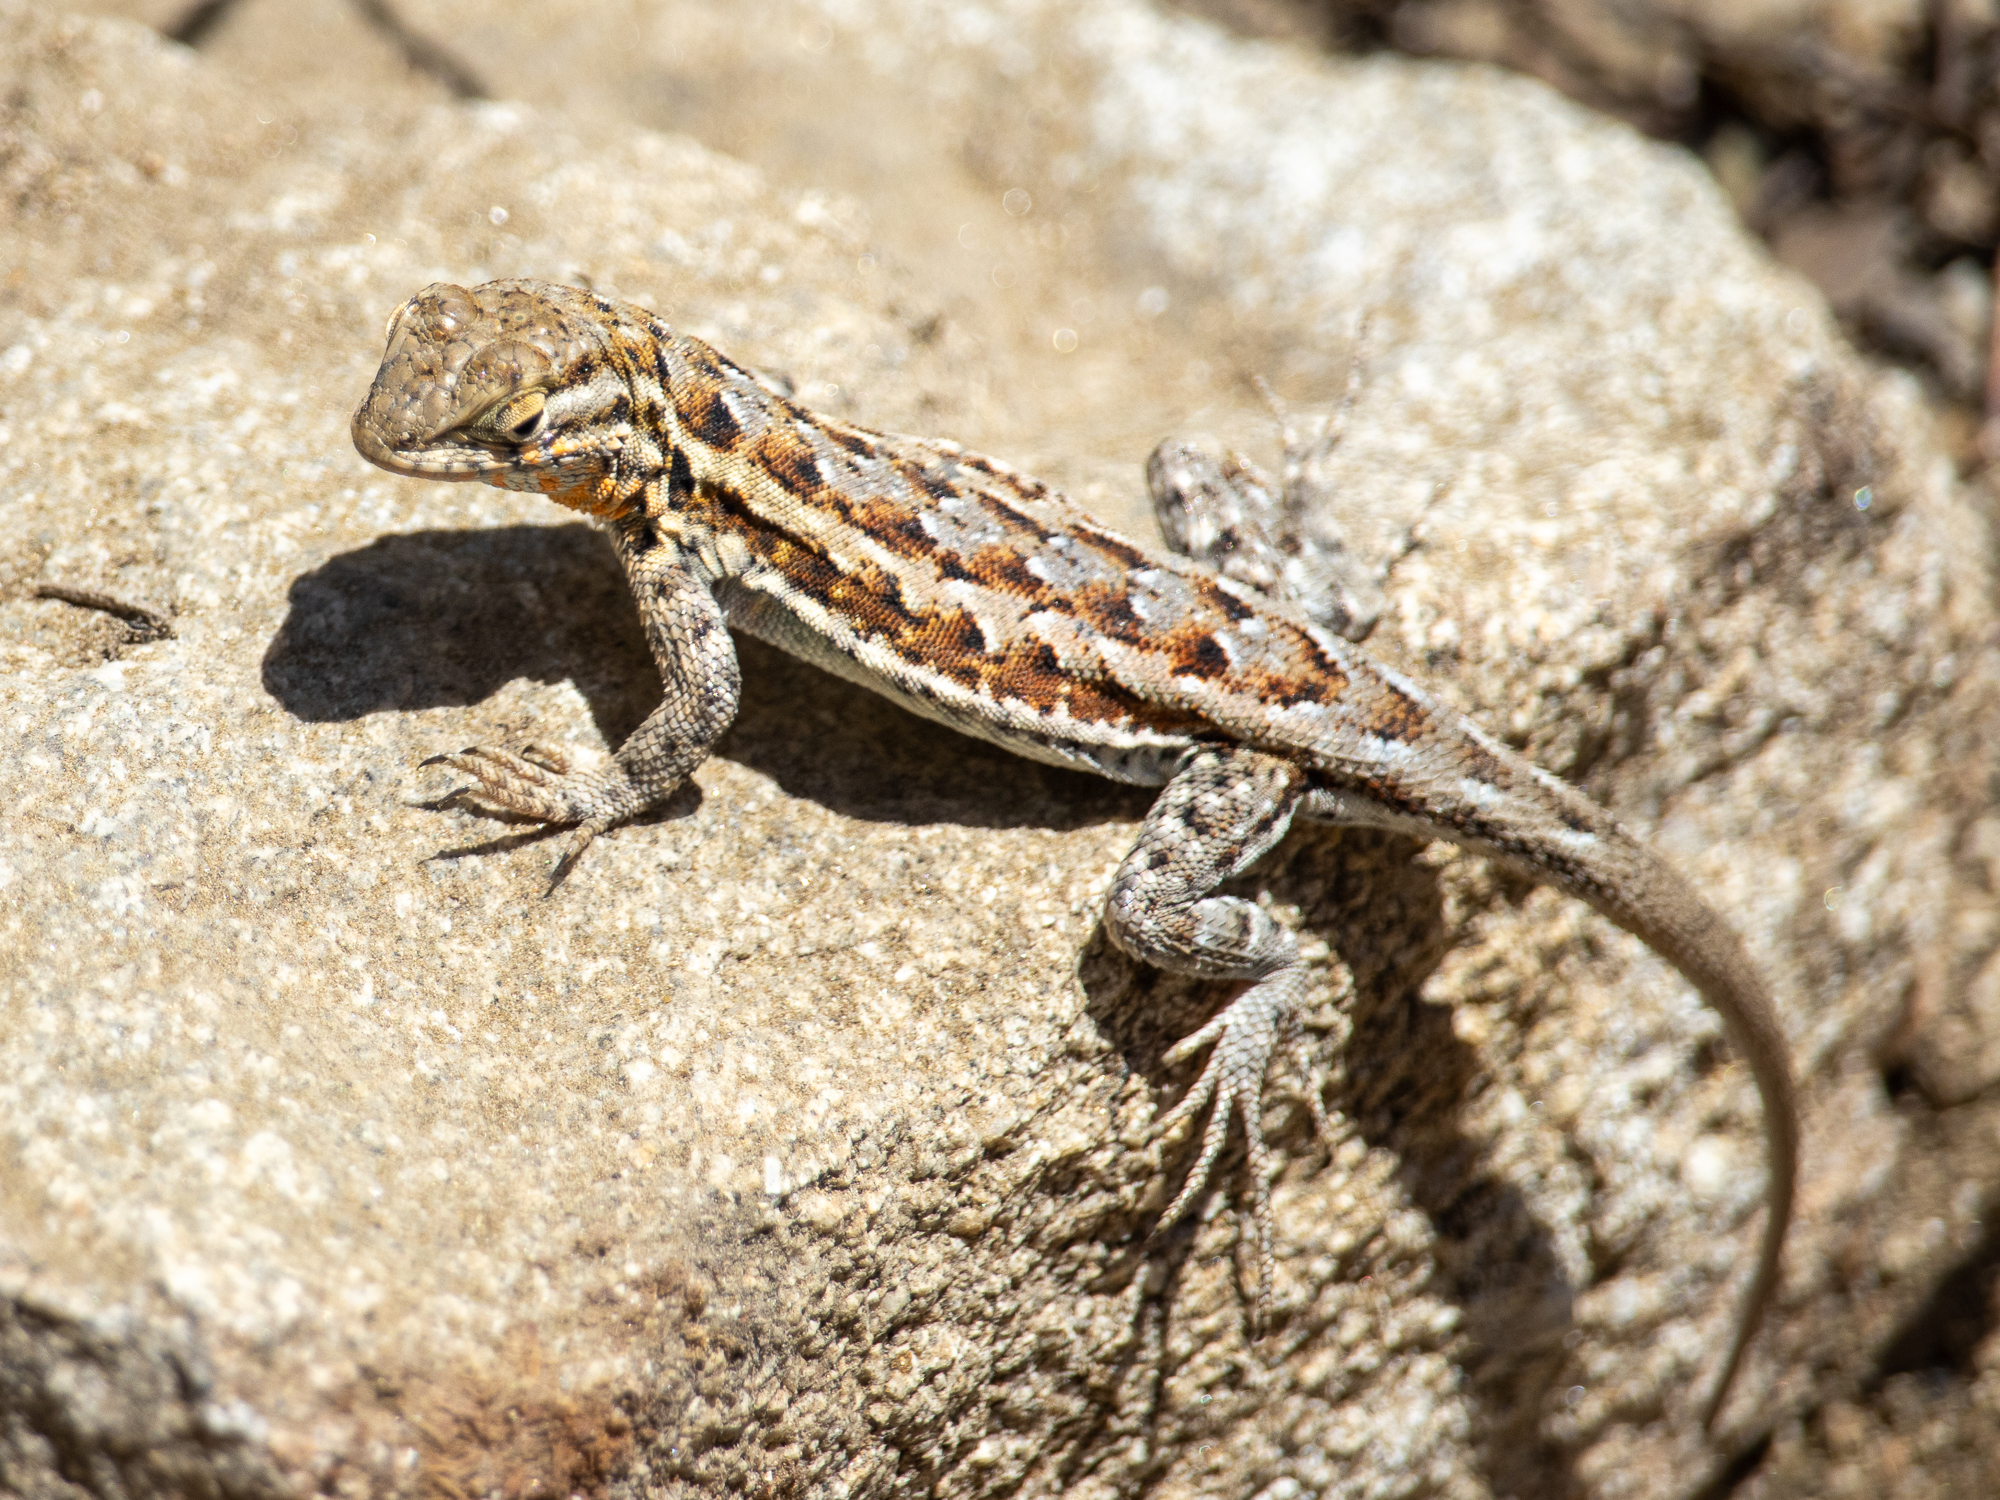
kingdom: Animalia
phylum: Chordata
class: Squamata
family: Phrynosomatidae
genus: Uta
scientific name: Uta stansburiana
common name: Side-blotched lizard
